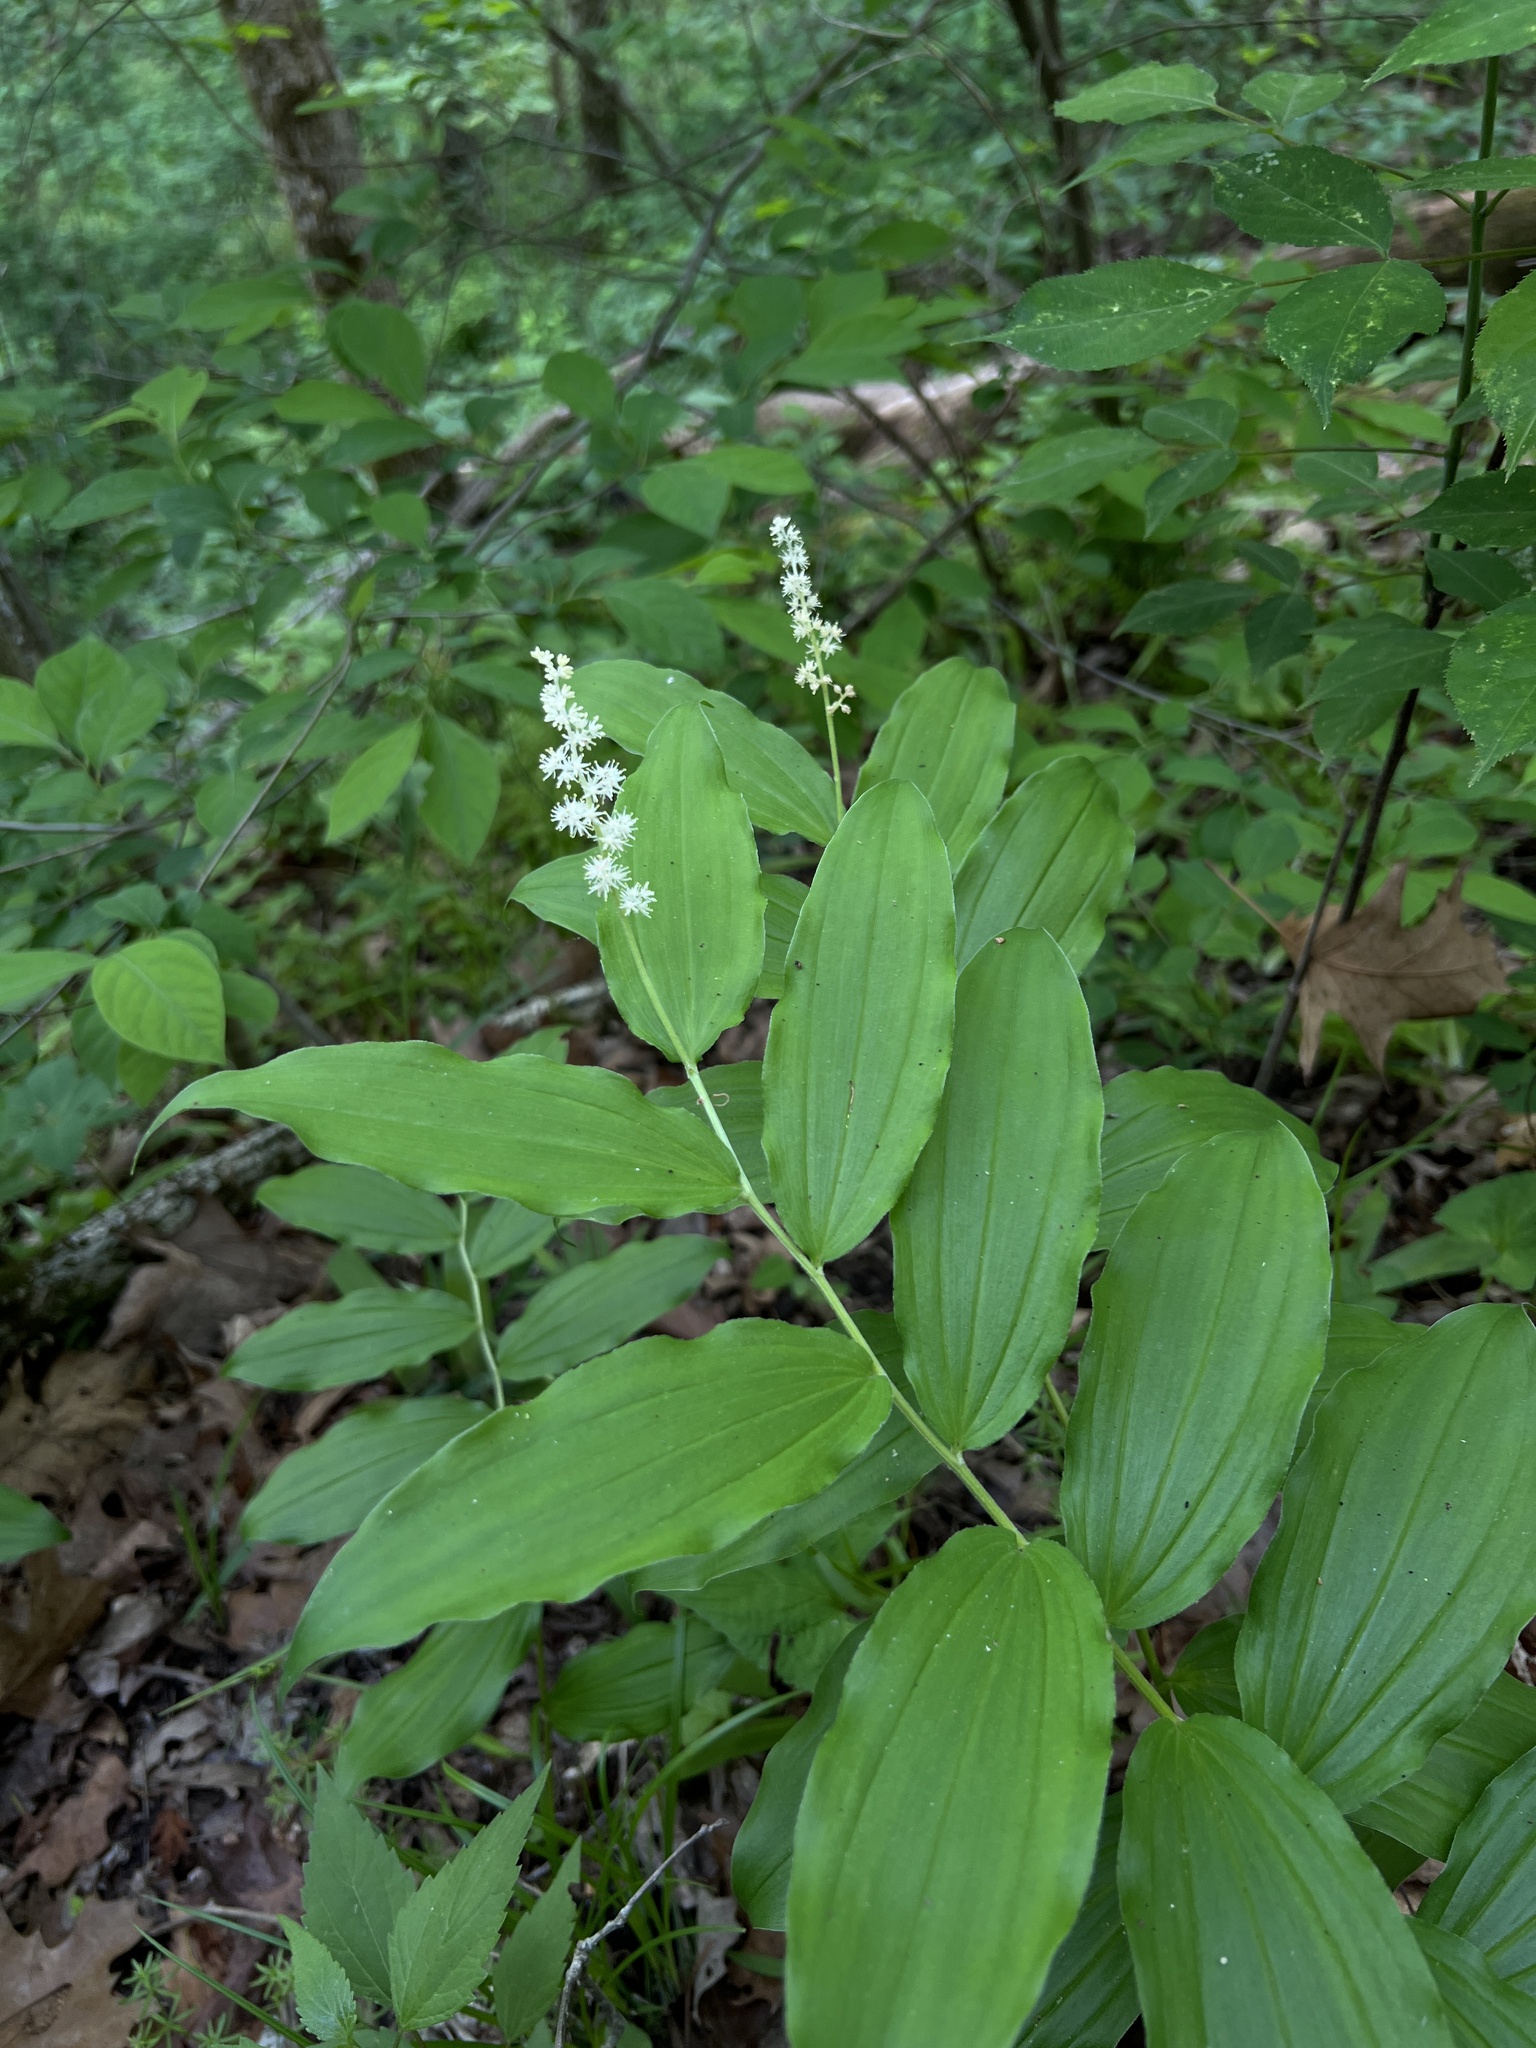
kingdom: Plantae
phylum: Tracheophyta
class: Liliopsida
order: Asparagales
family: Asparagaceae
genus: Maianthemum
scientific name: Maianthemum racemosum
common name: False spikenard
